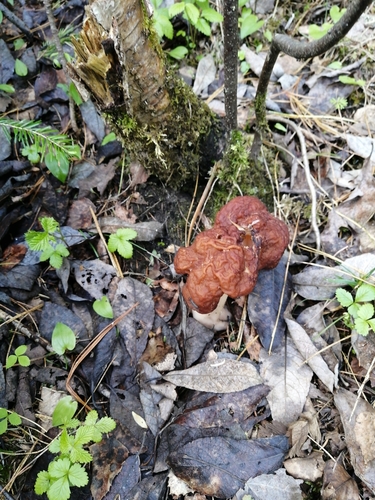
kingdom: Fungi
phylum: Ascomycota
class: Pezizomycetes
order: Pezizales
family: Discinaceae
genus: Gyromitra
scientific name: Gyromitra
